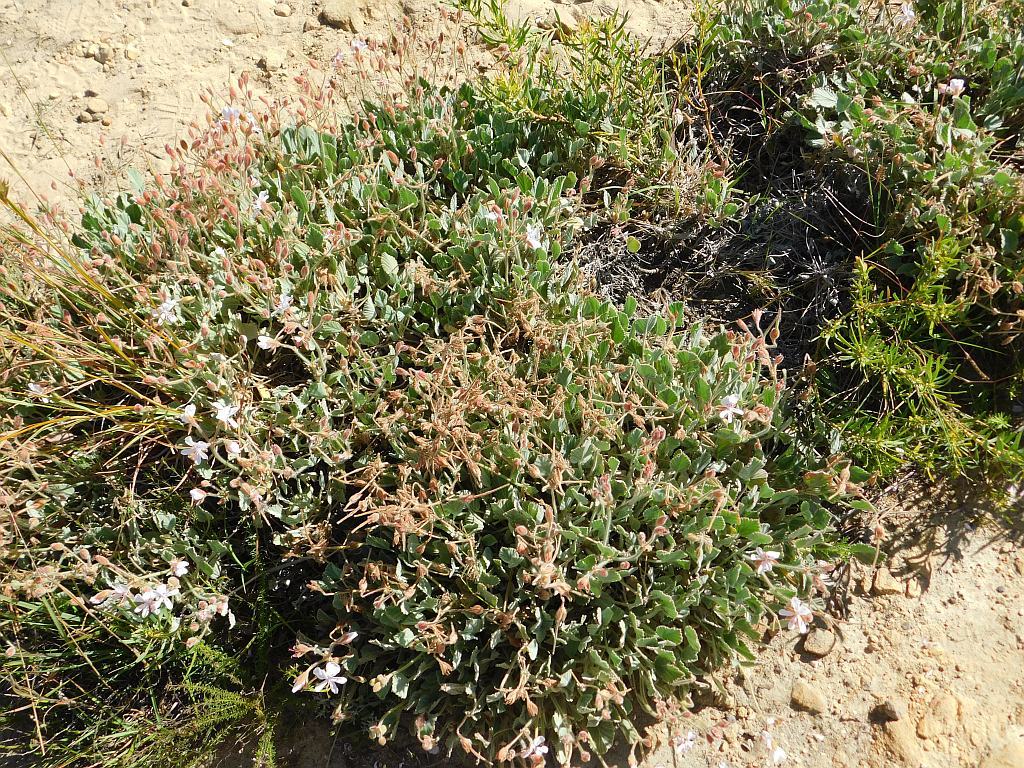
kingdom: Plantae
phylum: Tracheophyta
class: Magnoliopsida
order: Geraniales
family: Geraniaceae
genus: Pelargonium
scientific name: Pelargonium ovale
